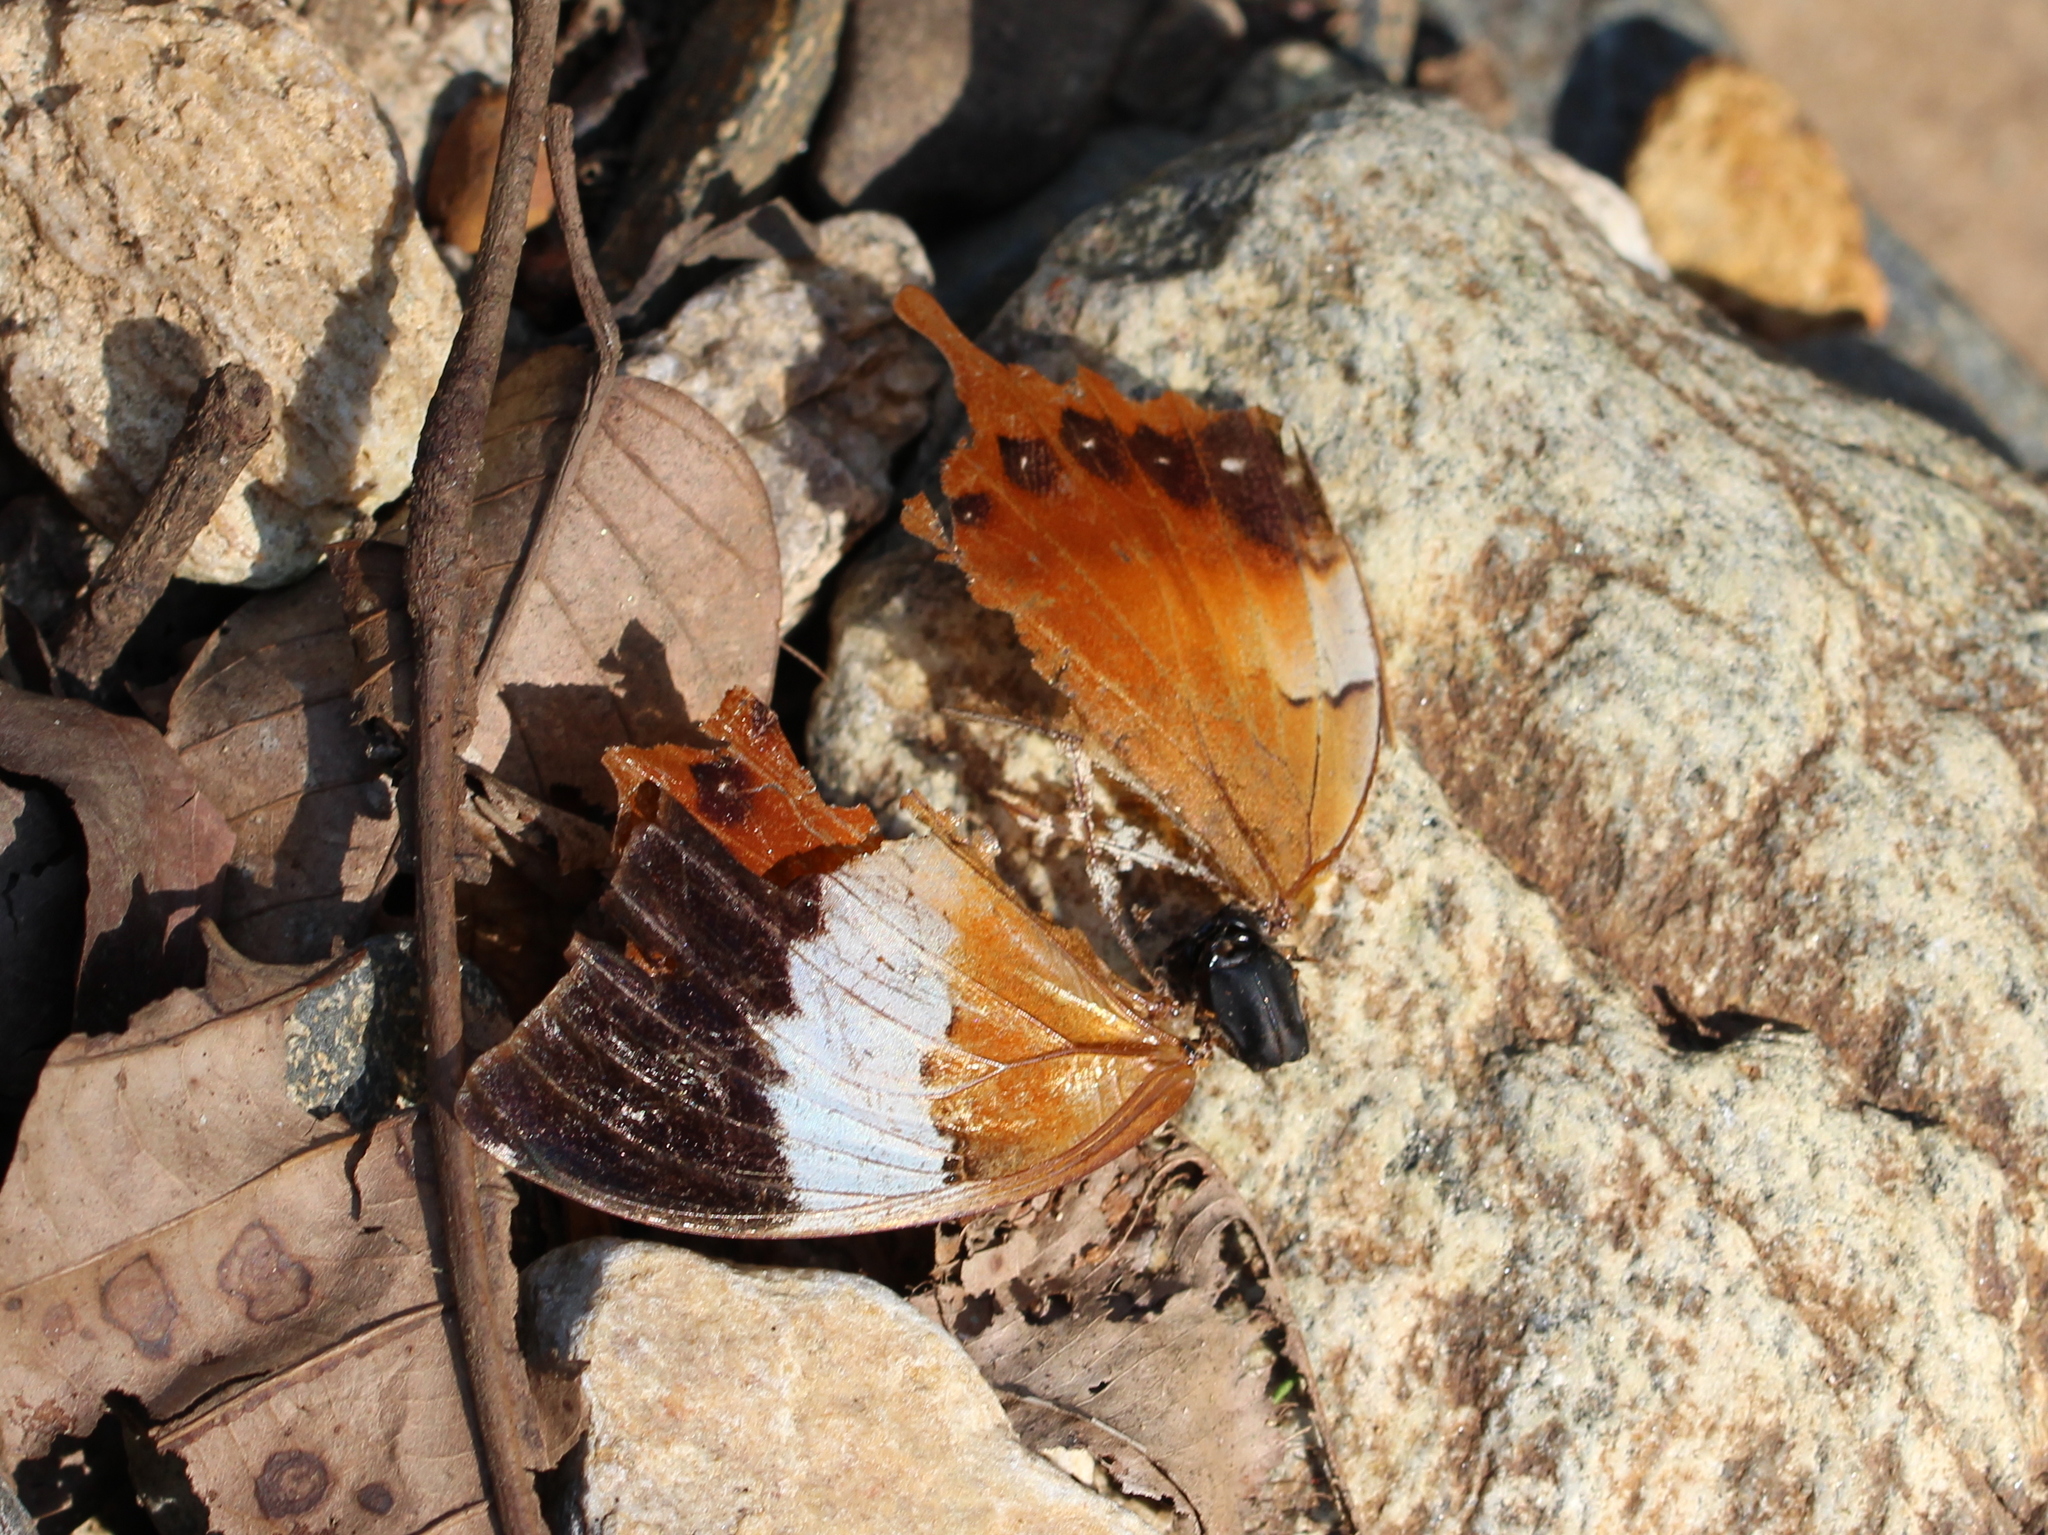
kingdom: Animalia
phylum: Arthropoda
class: Insecta
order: Lepidoptera
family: Nymphalidae
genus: Charaxes
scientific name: Charaxes psaphon
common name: Plain tawny rajah
